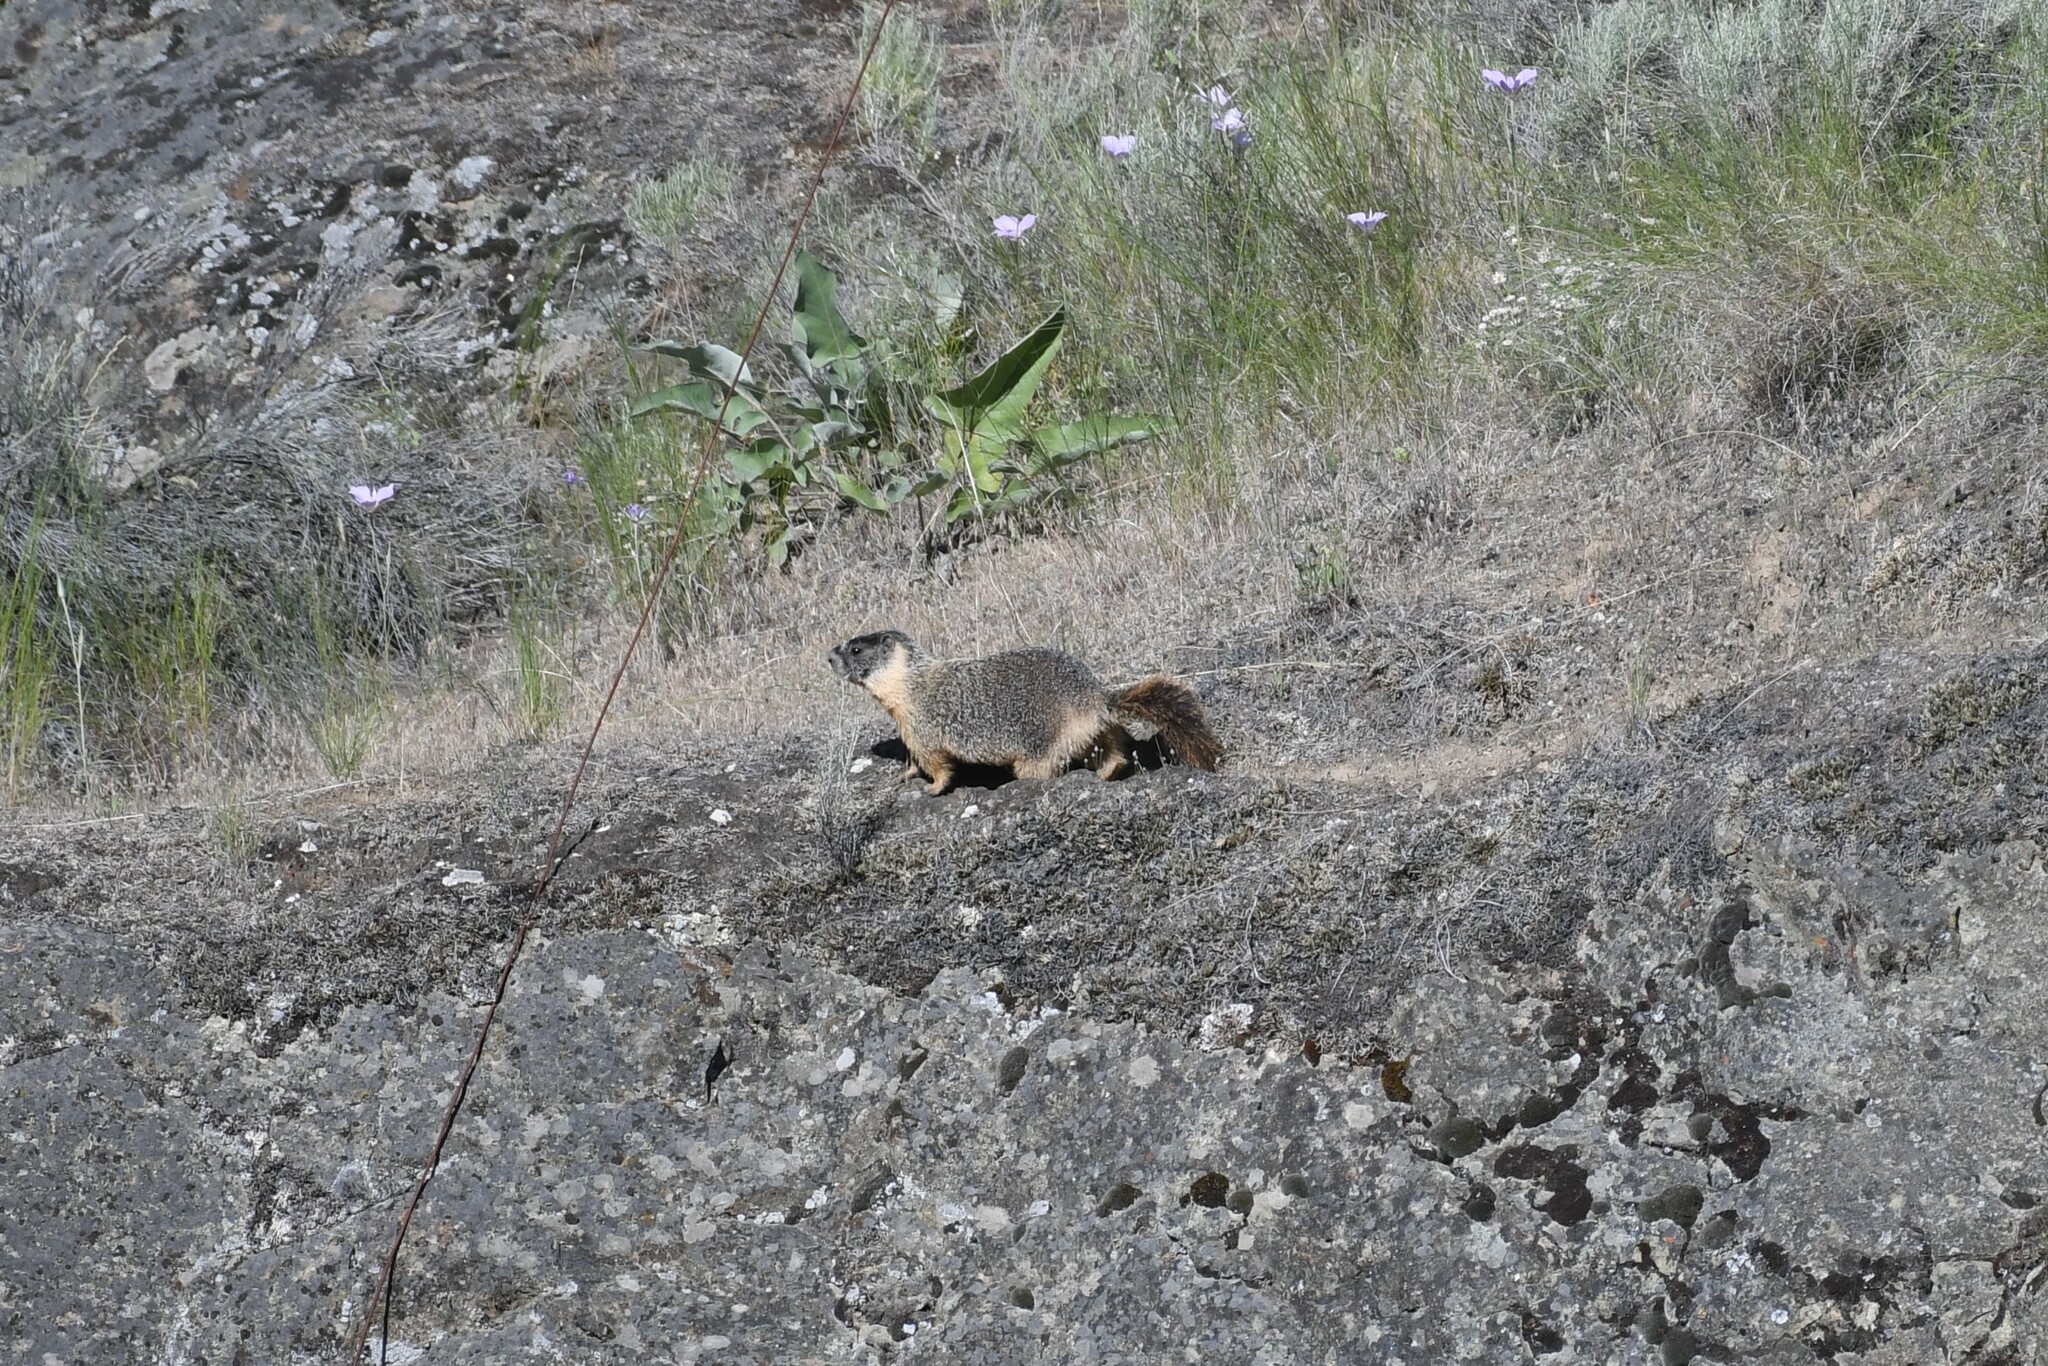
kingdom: Animalia
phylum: Chordata
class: Mammalia
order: Rodentia
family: Sciuridae
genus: Marmota
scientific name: Marmota flaviventris
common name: Yellow-bellied marmot
